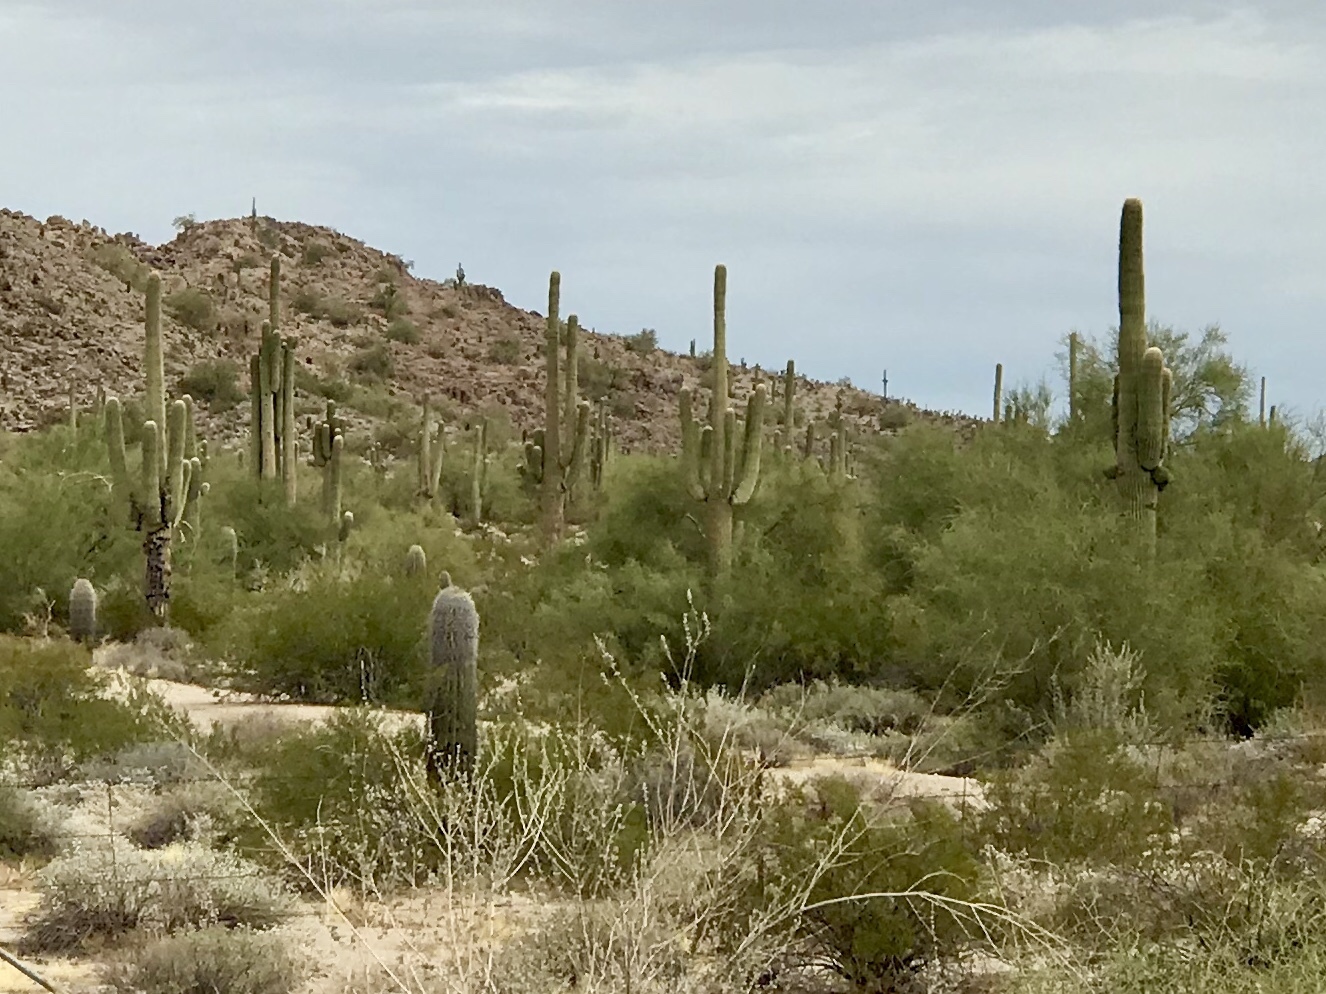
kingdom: Plantae
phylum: Tracheophyta
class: Magnoliopsida
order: Caryophyllales
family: Cactaceae
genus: Carnegiea
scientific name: Carnegiea gigantea
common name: Saguaro
